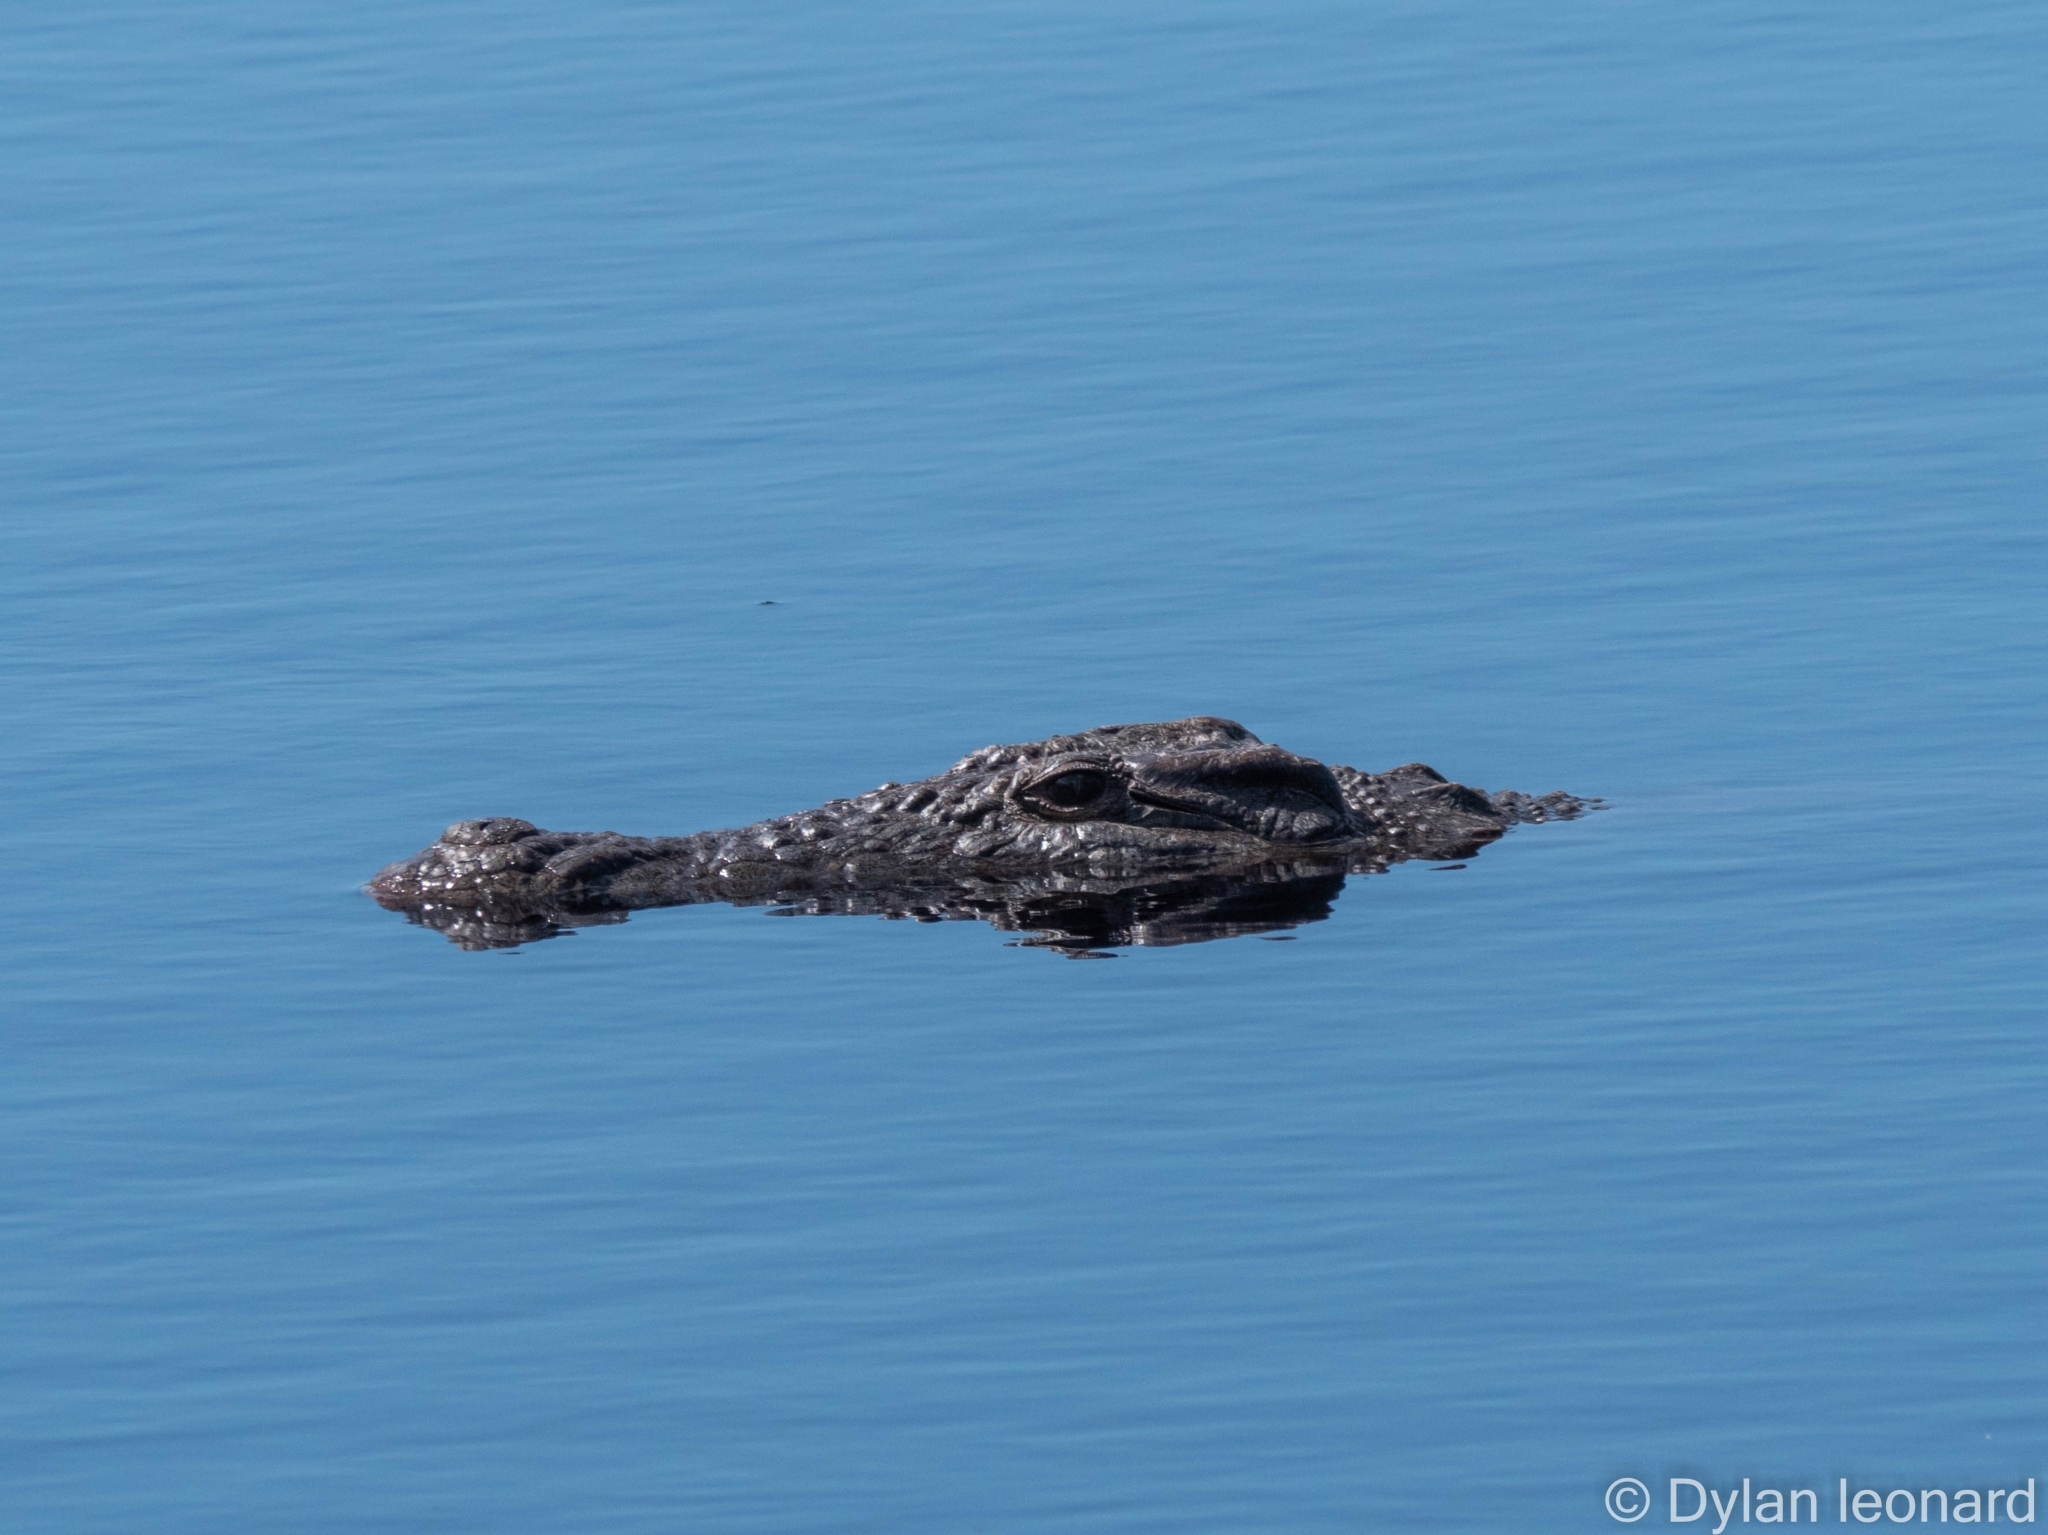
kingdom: Animalia
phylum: Chordata
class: Crocodylia
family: Crocodylidae
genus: Crocodylus
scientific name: Crocodylus niloticus
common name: Nile crocodile
